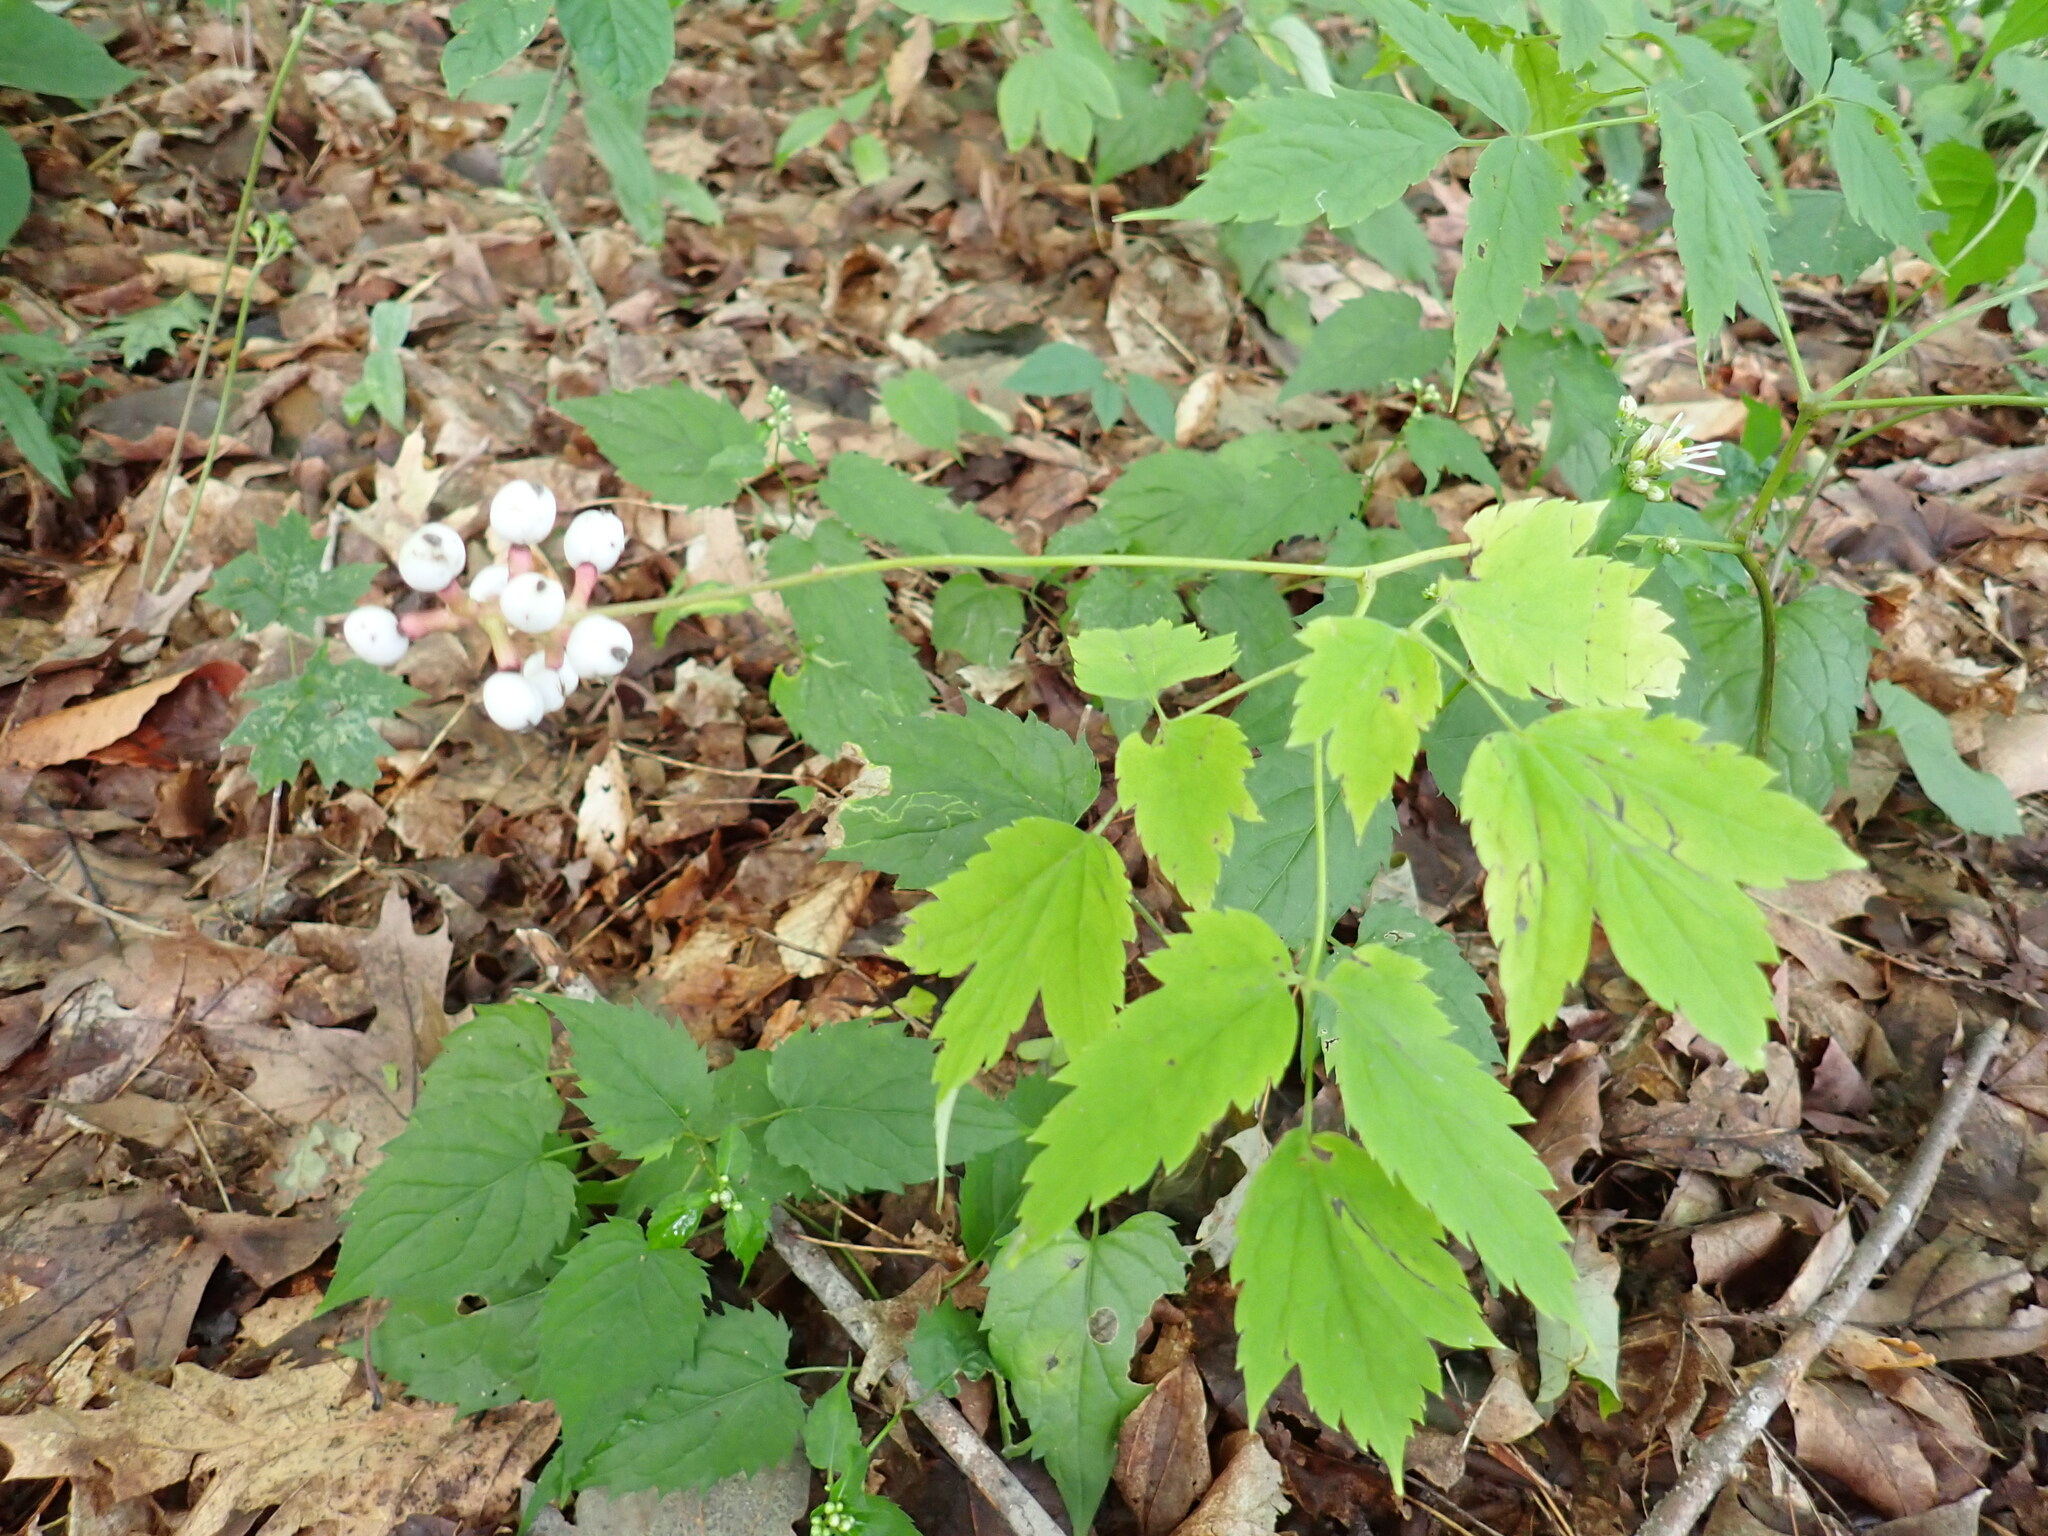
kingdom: Plantae
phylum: Tracheophyta
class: Magnoliopsida
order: Ranunculales
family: Ranunculaceae
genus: Actaea
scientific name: Actaea pachypoda
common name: Doll's-eyes
